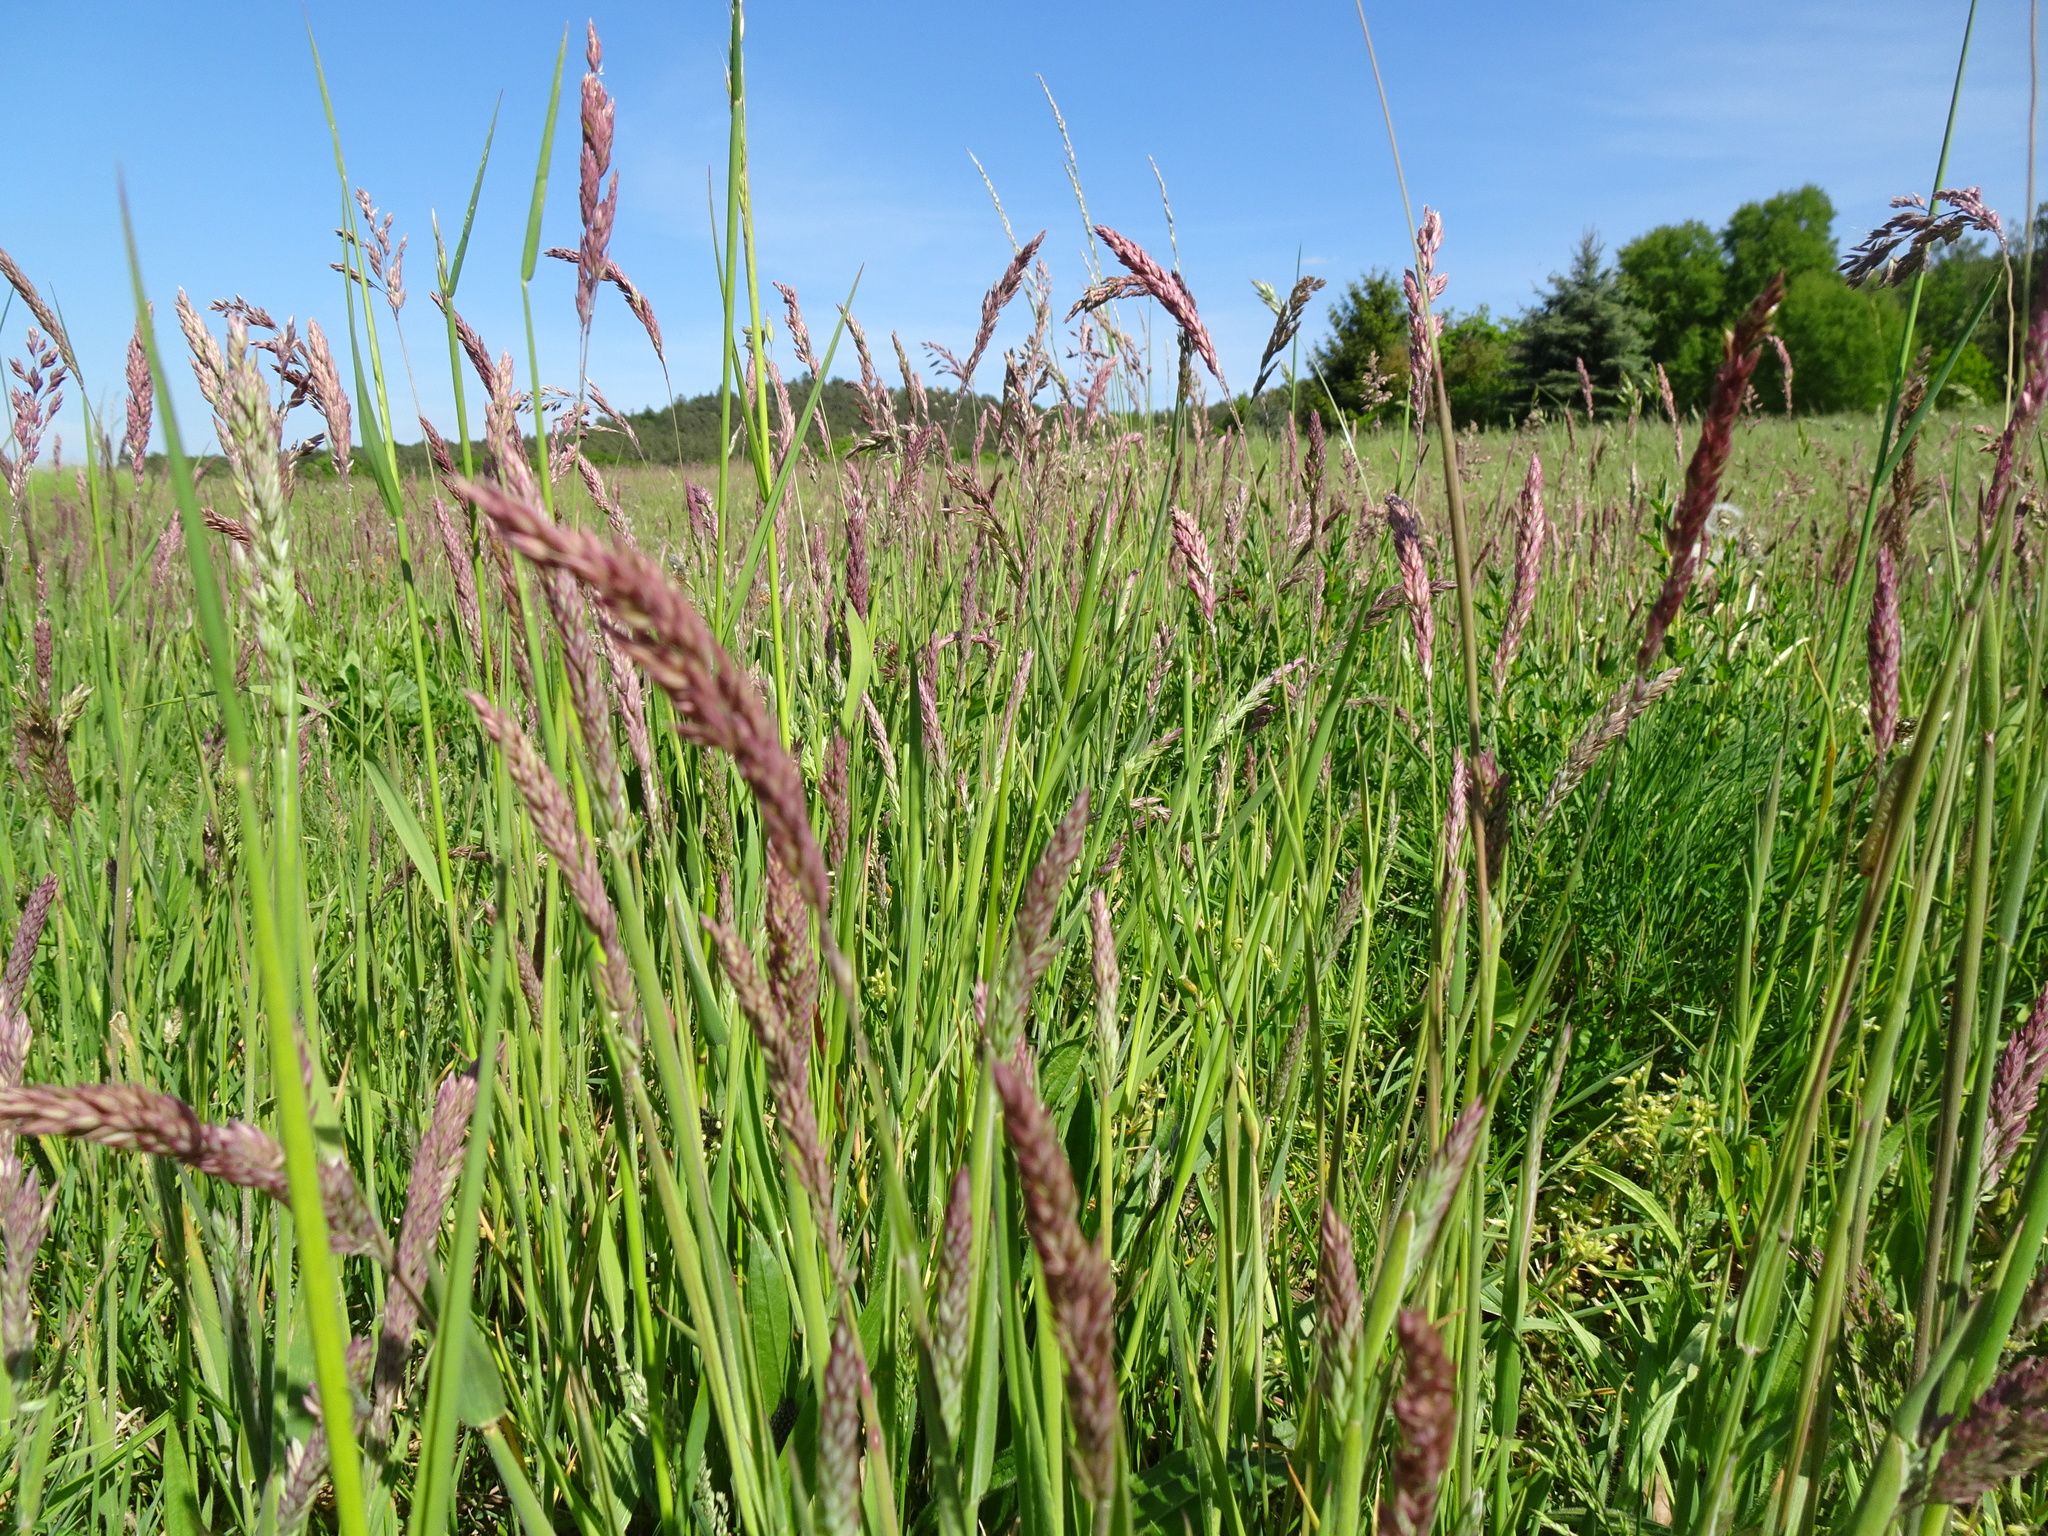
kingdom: Plantae
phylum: Tracheophyta
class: Liliopsida
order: Poales
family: Poaceae
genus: Holcus
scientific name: Holcus lanatus
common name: Yorkshire-fog
